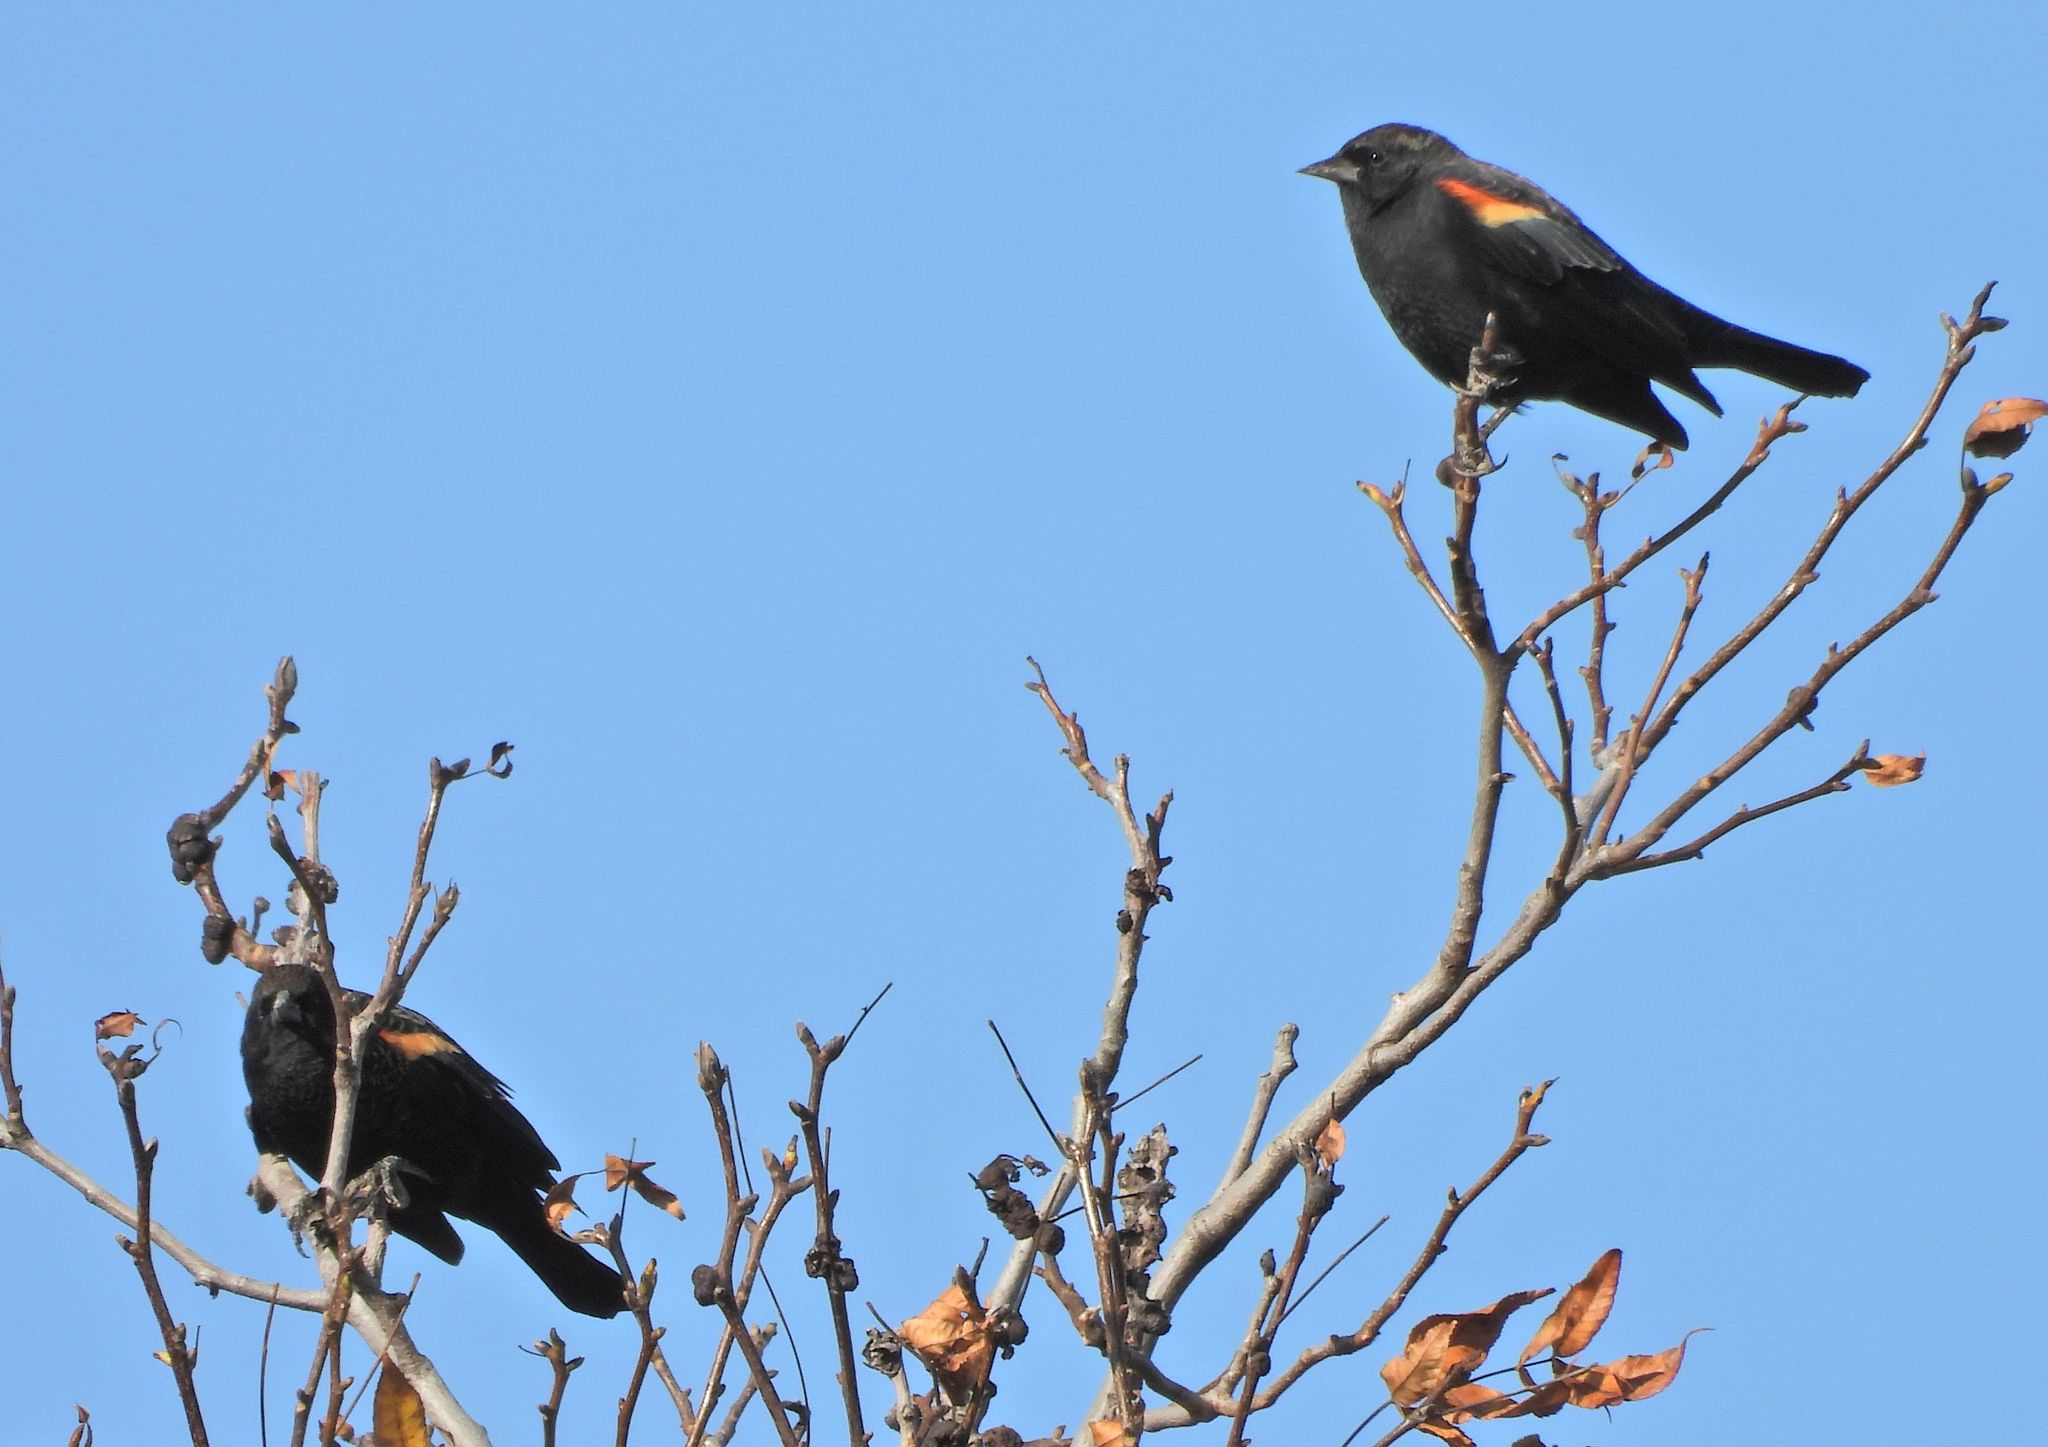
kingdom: Animalia
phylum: Chordata
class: Aves
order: Passeriformes
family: Icteridae
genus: Agelaius
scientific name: Agelaius phoeniceus
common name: Red-winged blackbird
